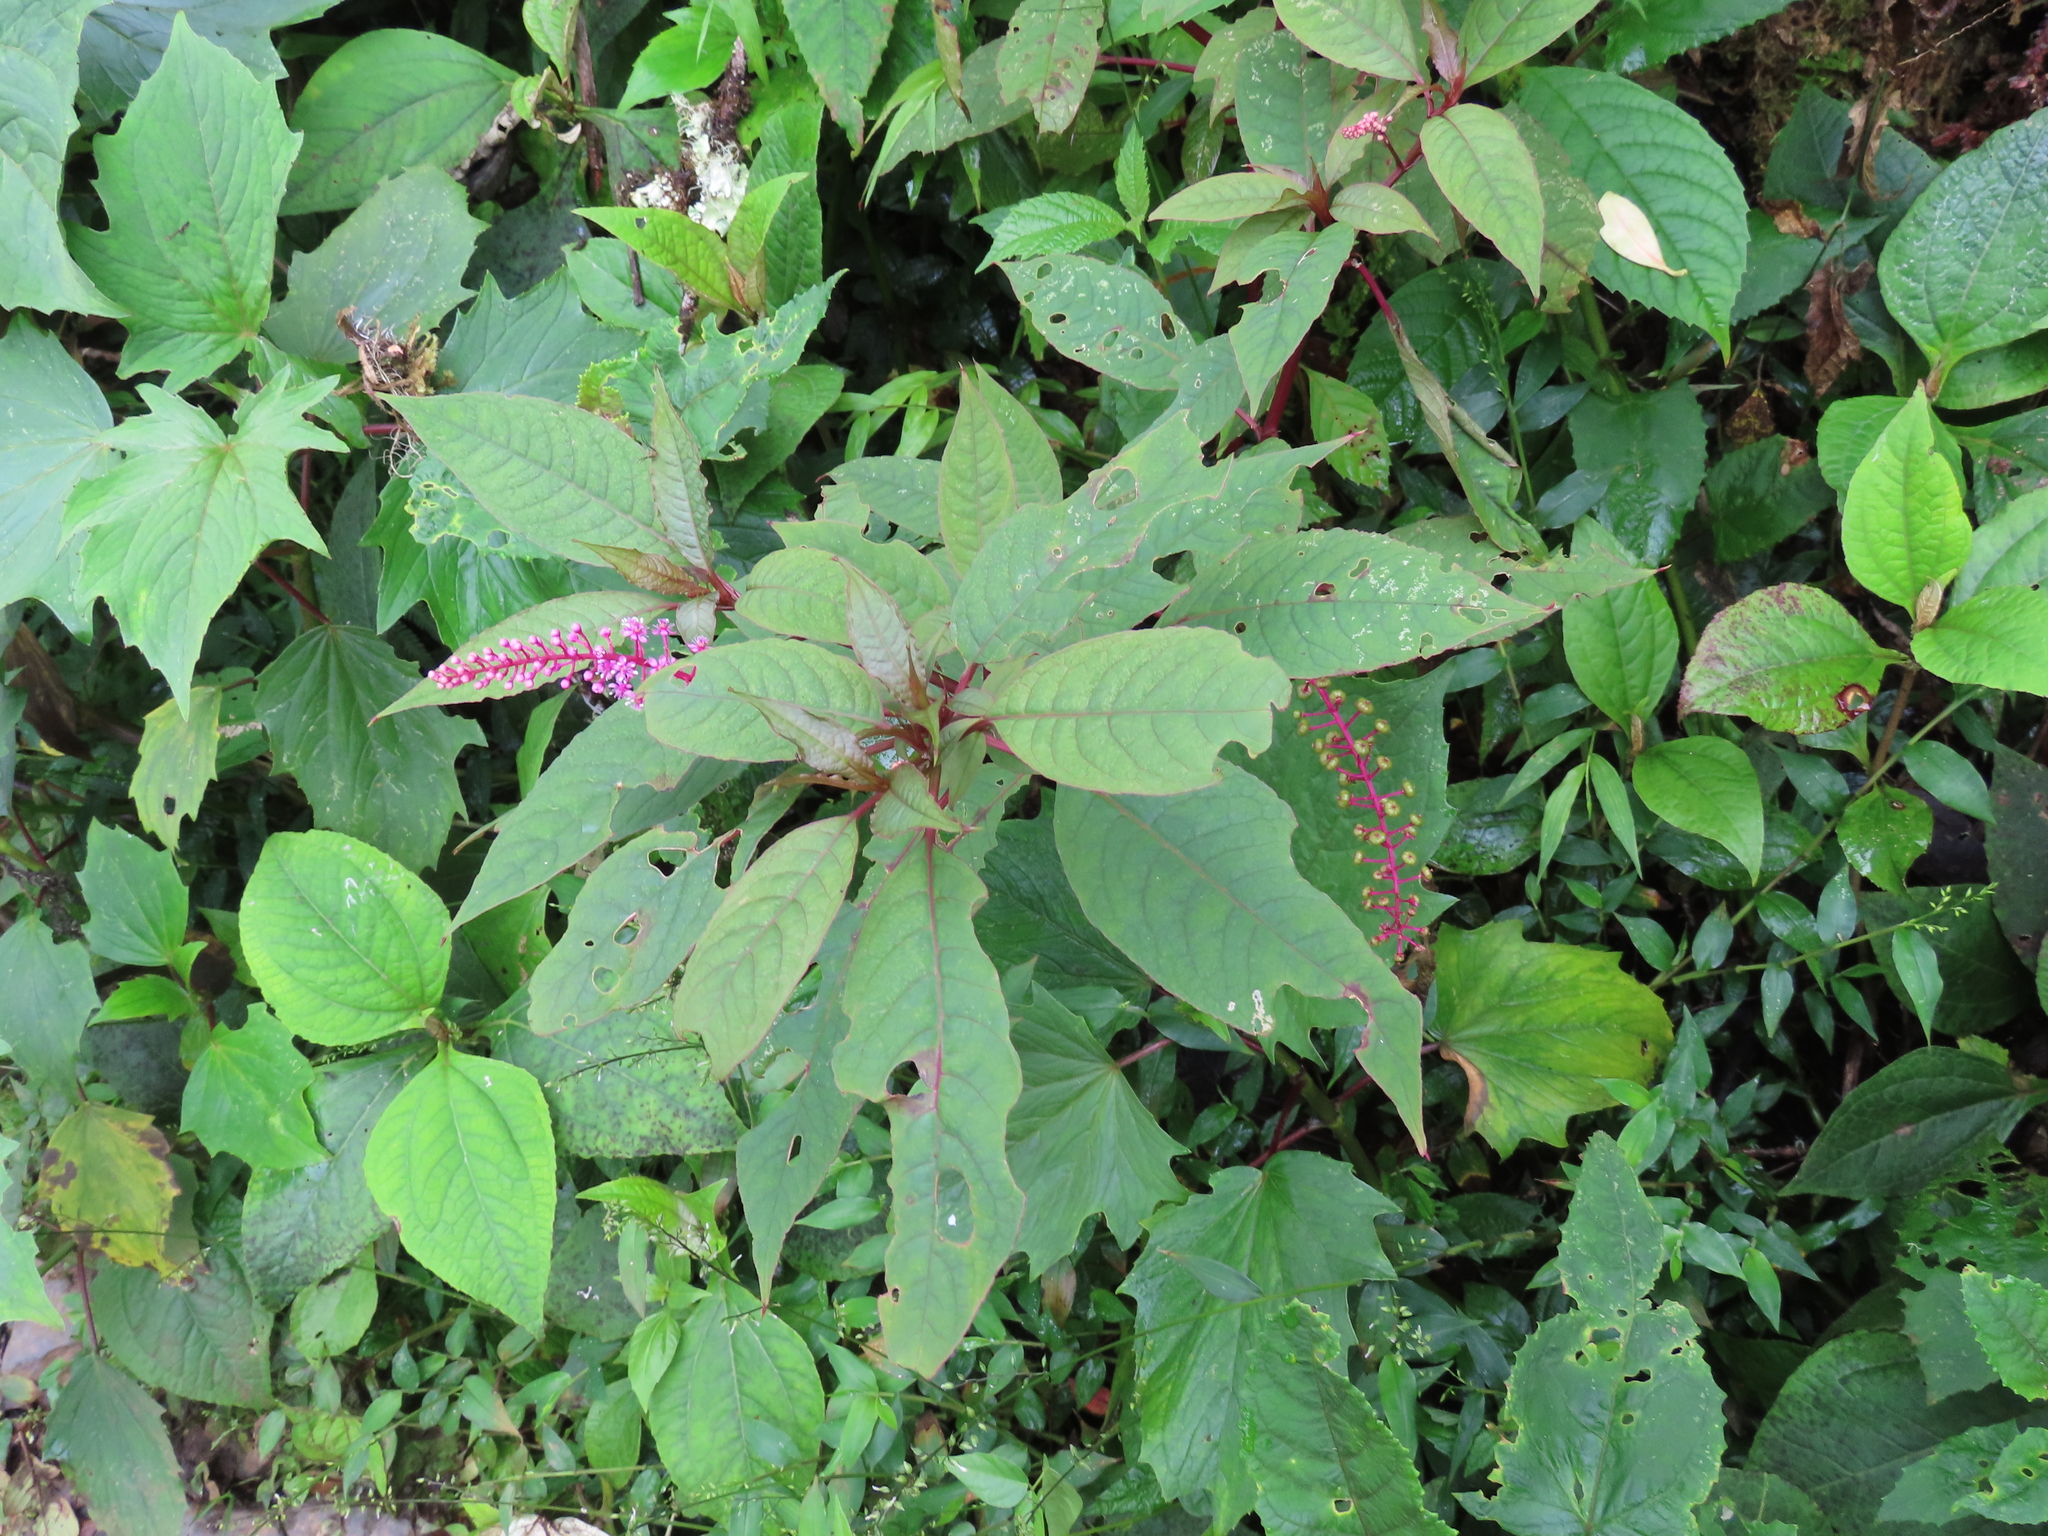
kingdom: Plantae
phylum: Tracheophyta
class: Magnoliopsida
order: Caryophyllales
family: Phytolaccaceae
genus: Phytolacca
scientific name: Phytolacca rivinoides
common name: Venezuelan pokeweed
